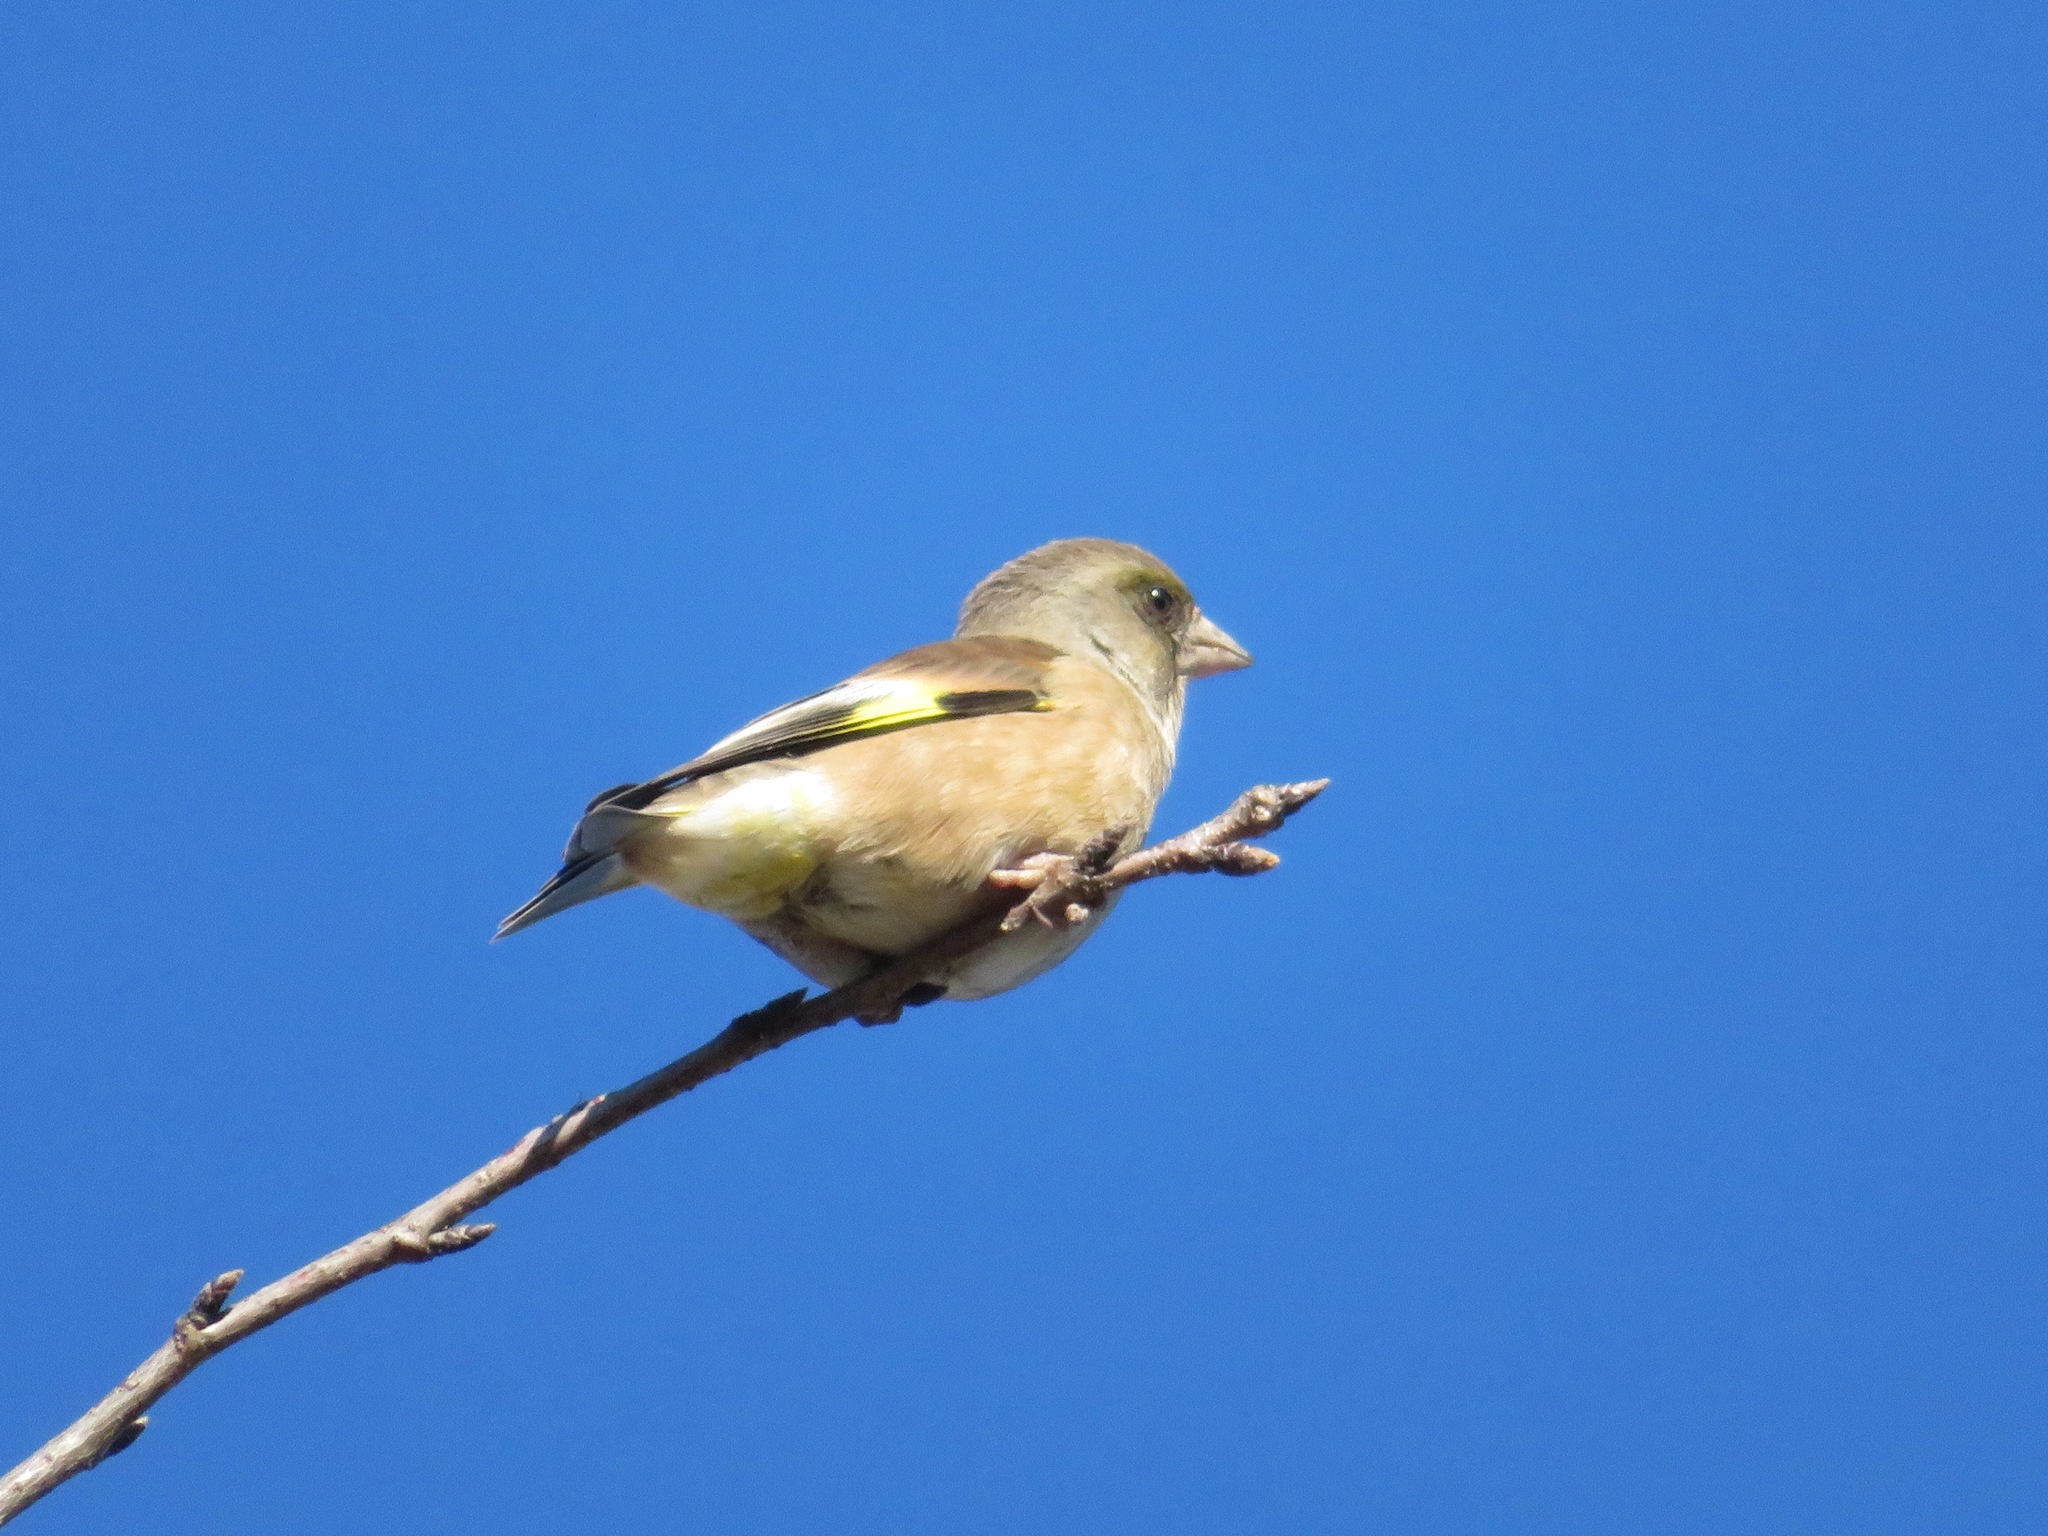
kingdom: Plantae
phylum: Tracheophyta
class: Liliopsida
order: Poales
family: Poaceae
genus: Chloris
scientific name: Chloris sinica
